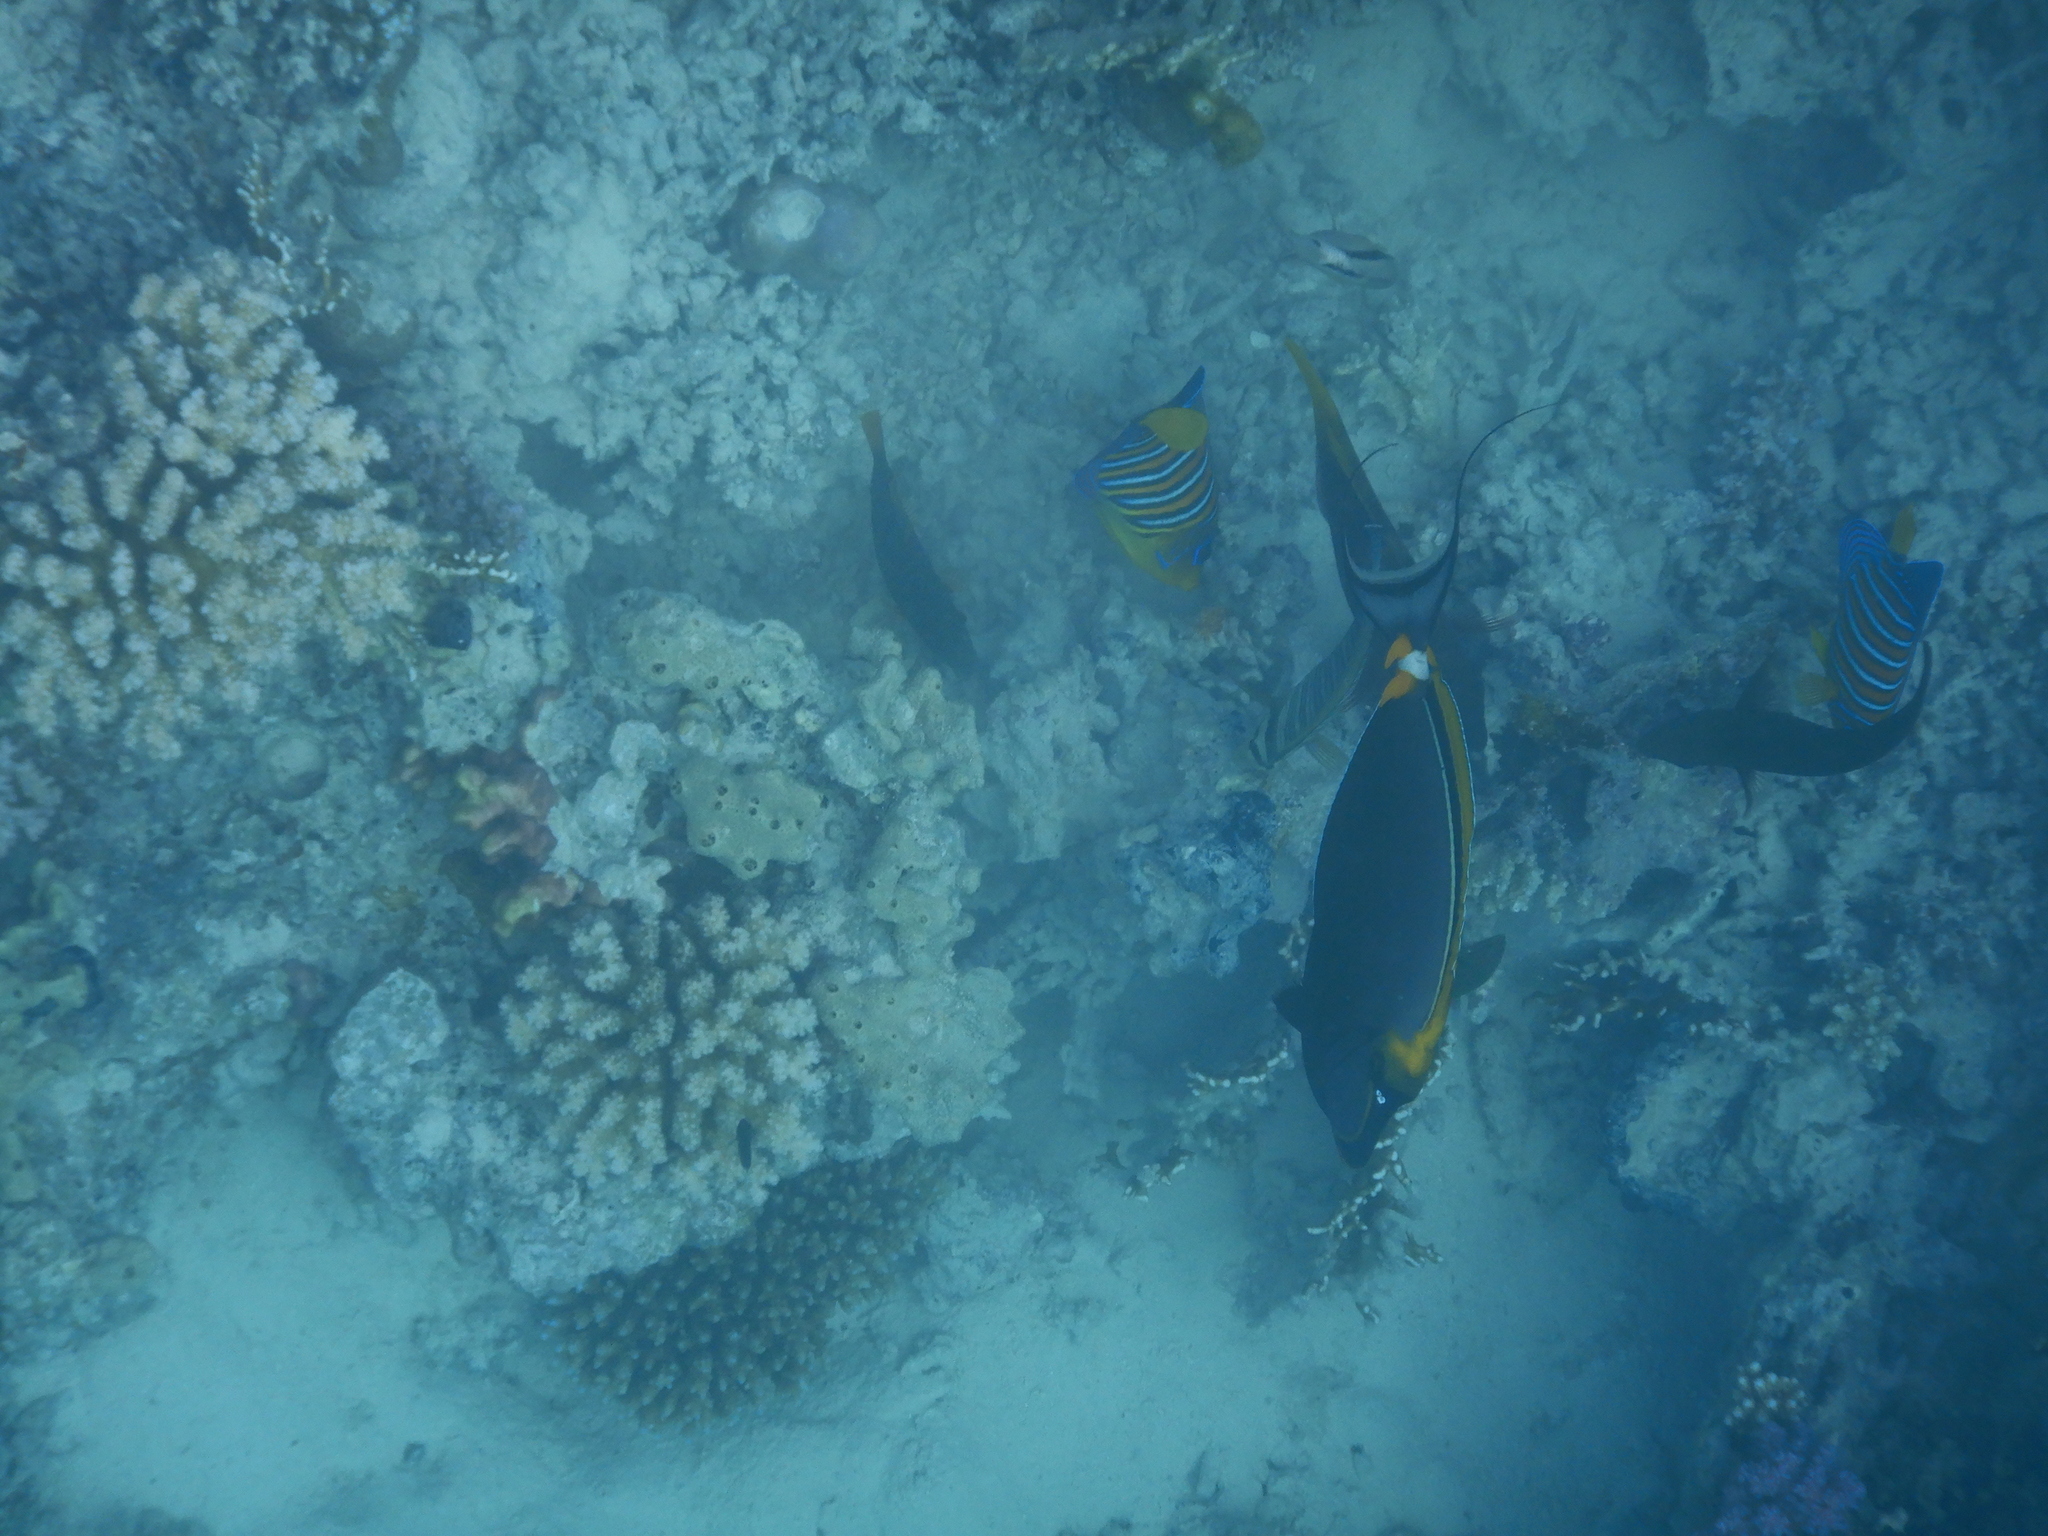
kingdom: Animalia
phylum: Chordata
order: Perciformes
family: Pomacanthidae
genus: Pygoplites
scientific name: Pygoplites diacanthus
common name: Regal angelfish
